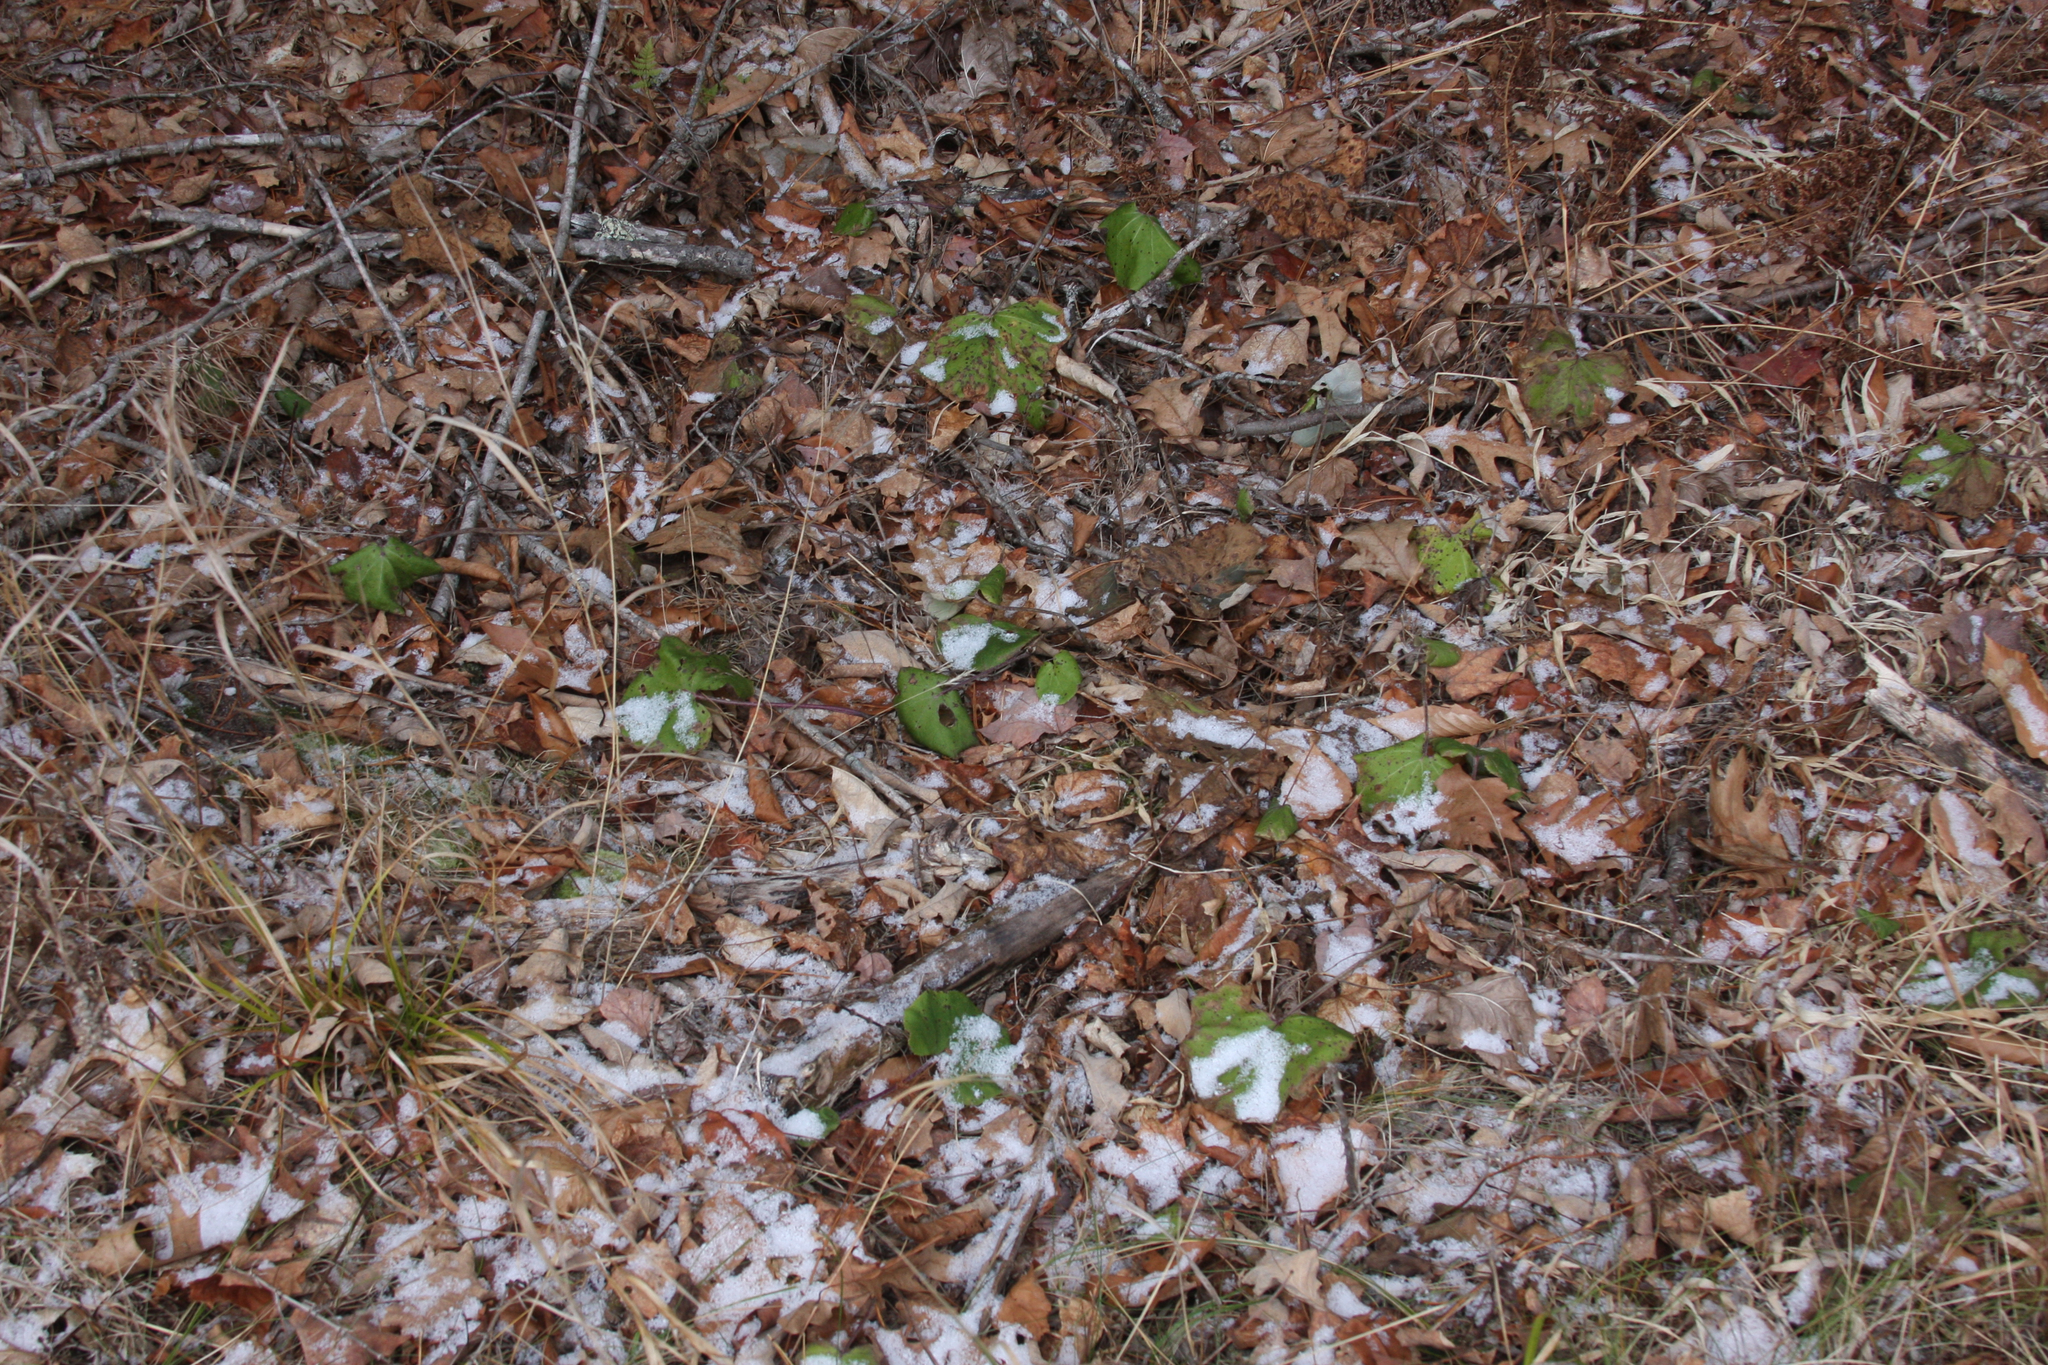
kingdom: Plantae
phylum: Tracheophyta
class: Magnoliopsida
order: Asterales
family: Asteraceae
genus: Tussilago
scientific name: Tussilago farfara
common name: Coltsfoot
